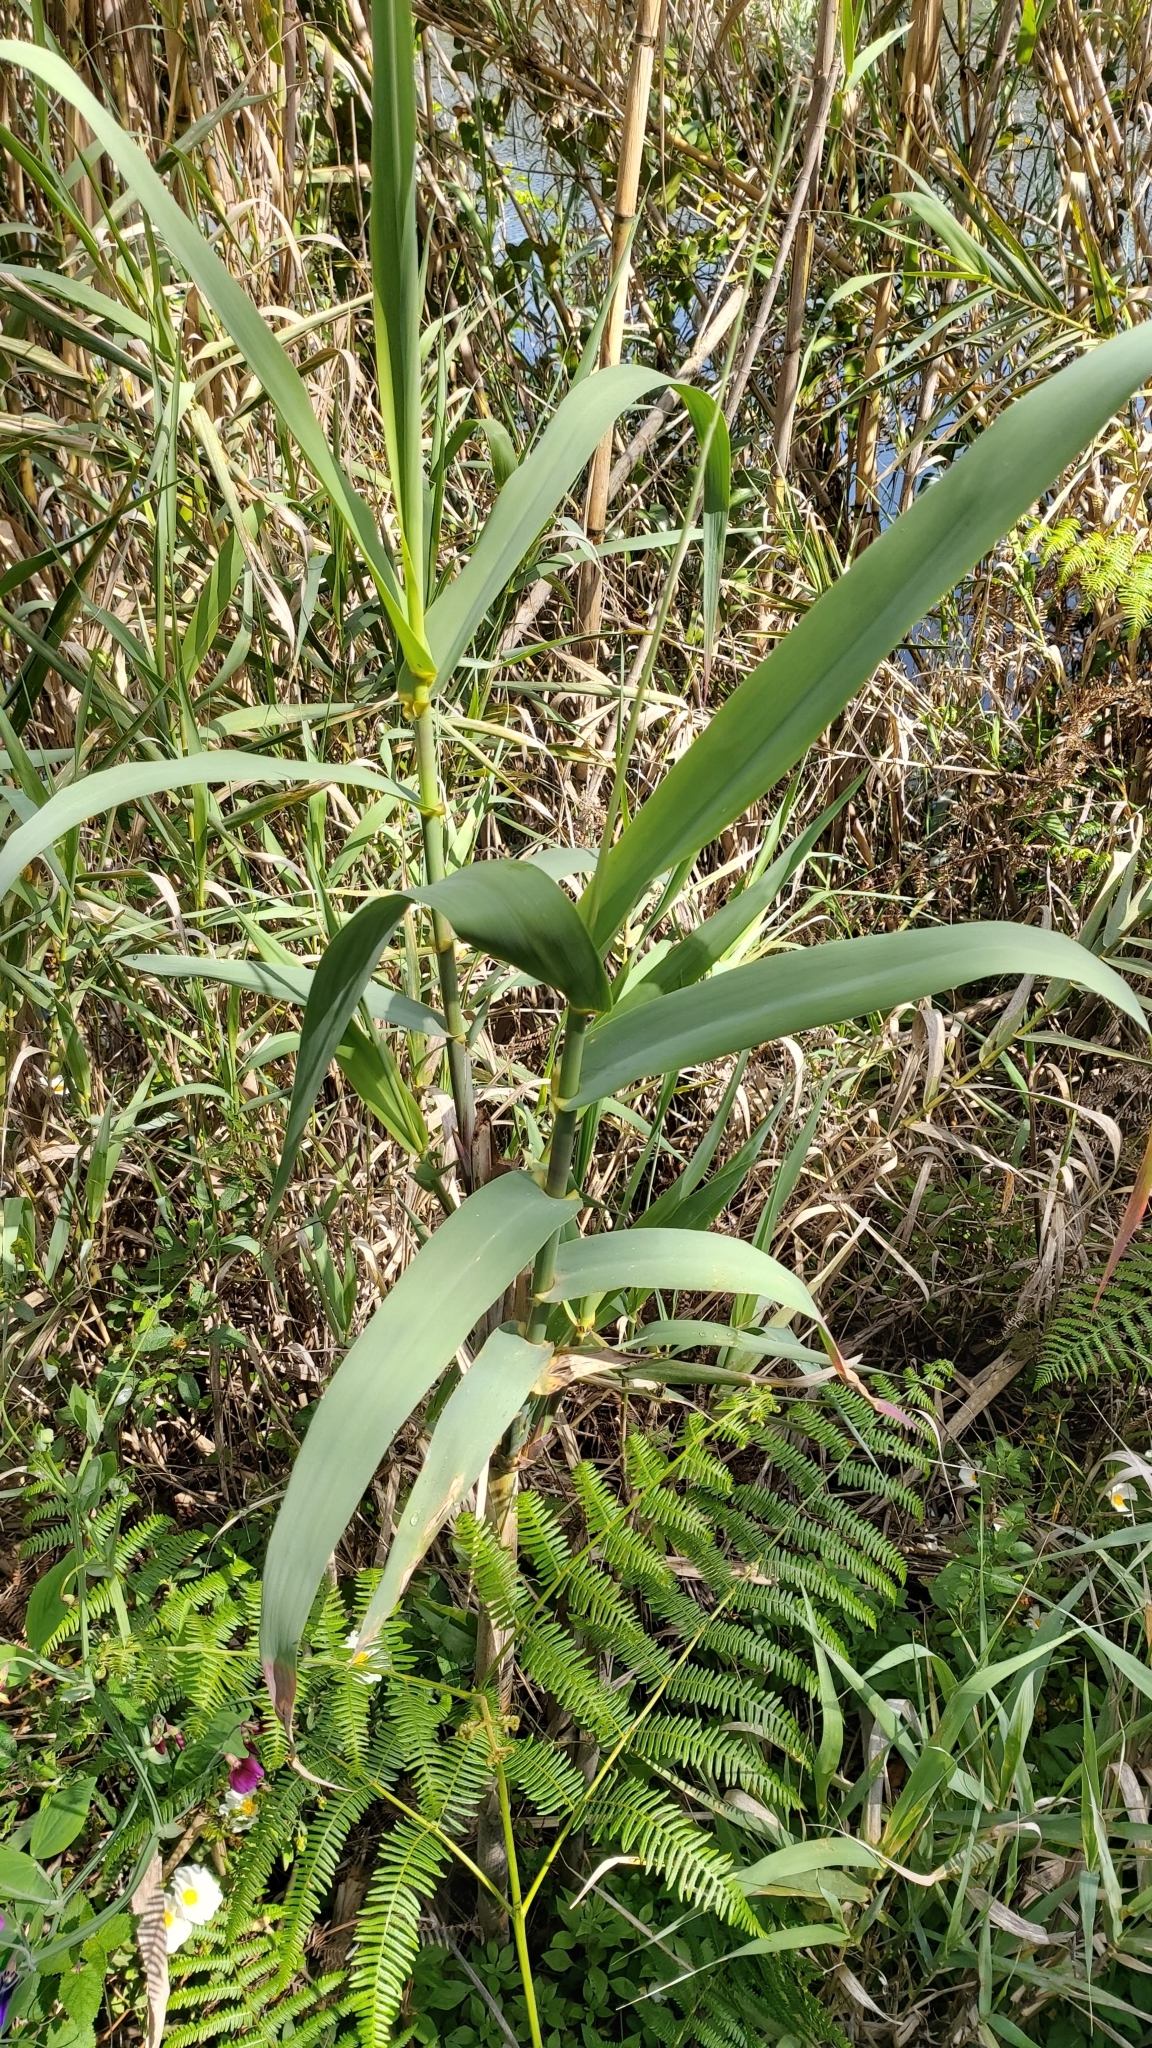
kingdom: Plantae
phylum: Tracheophyta
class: Liliopsida
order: Poales
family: Poaceae
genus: Arundo
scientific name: Arundo donax
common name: Giant reed
